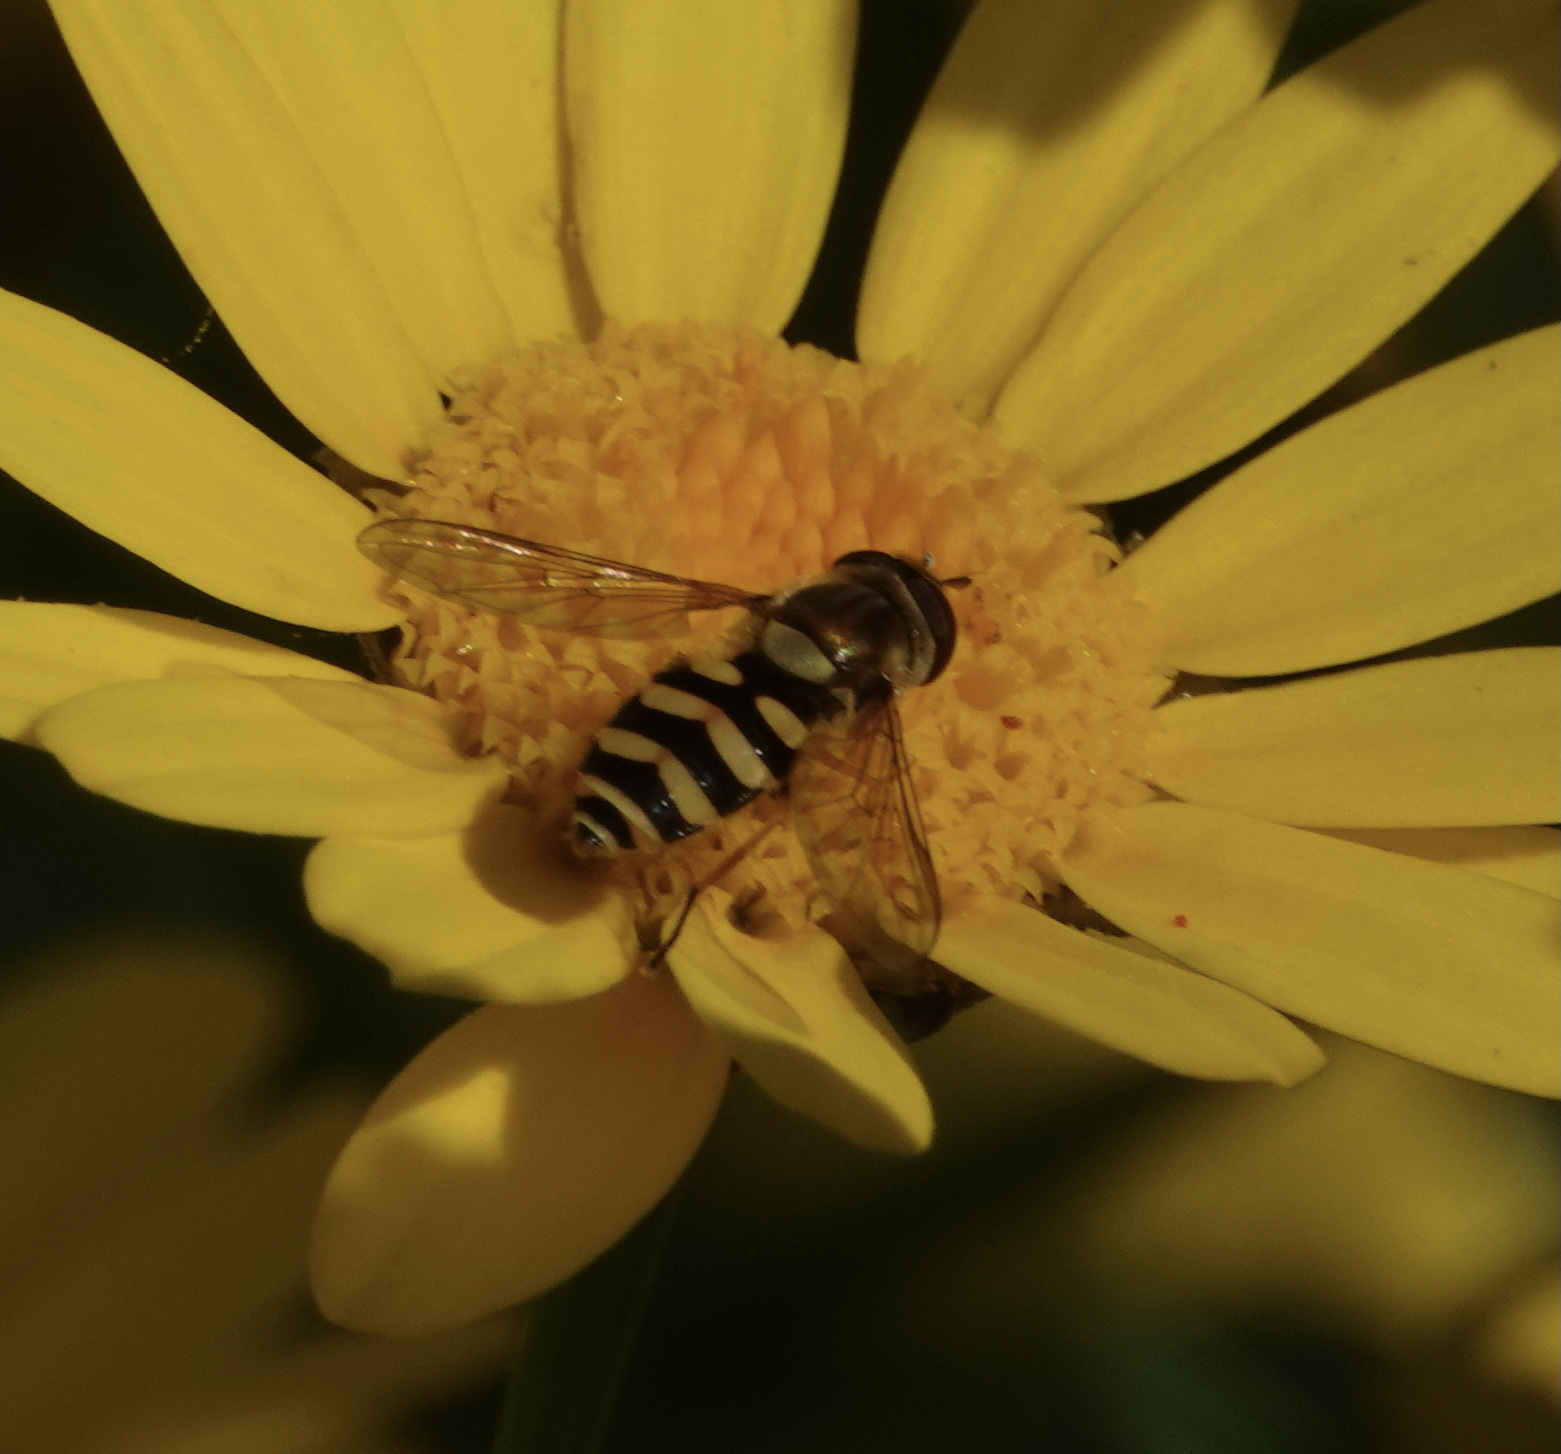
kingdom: Animalia
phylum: Arthropoda
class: Insecta
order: Diptera
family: Syrphidae
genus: Syrphus
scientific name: Syrphus
